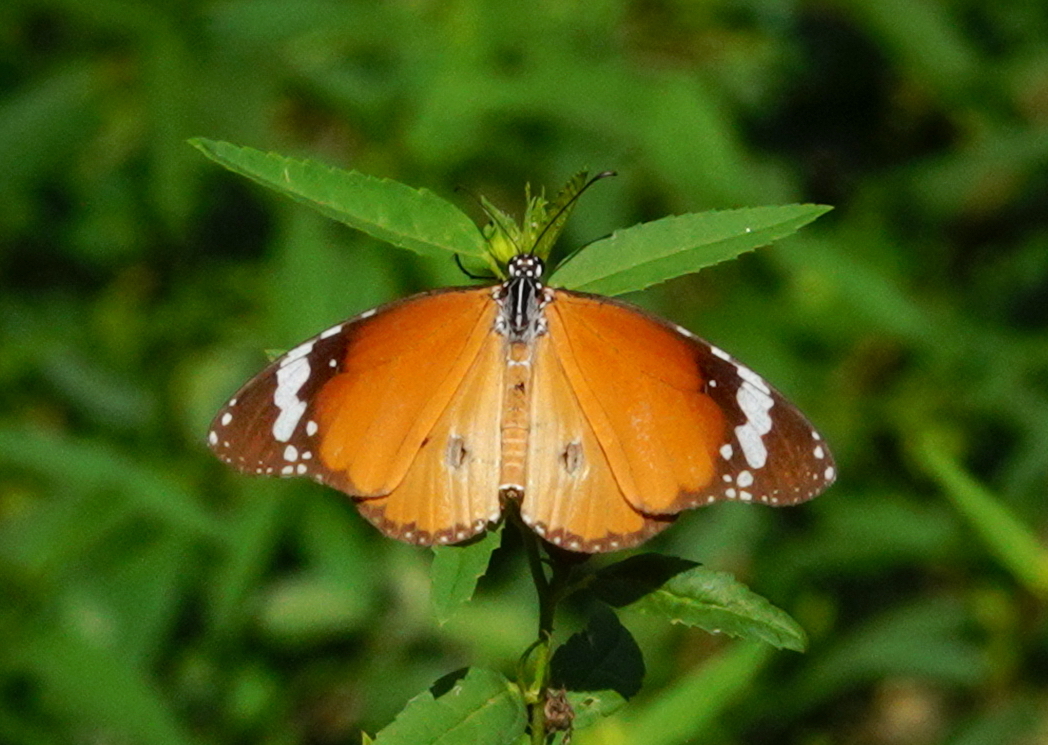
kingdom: Animalia
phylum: Arthropoda
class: Insecta
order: Lepidoptera
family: Nymphalidae
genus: Danaus
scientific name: Danaus chrysippus
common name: Plain tiger
